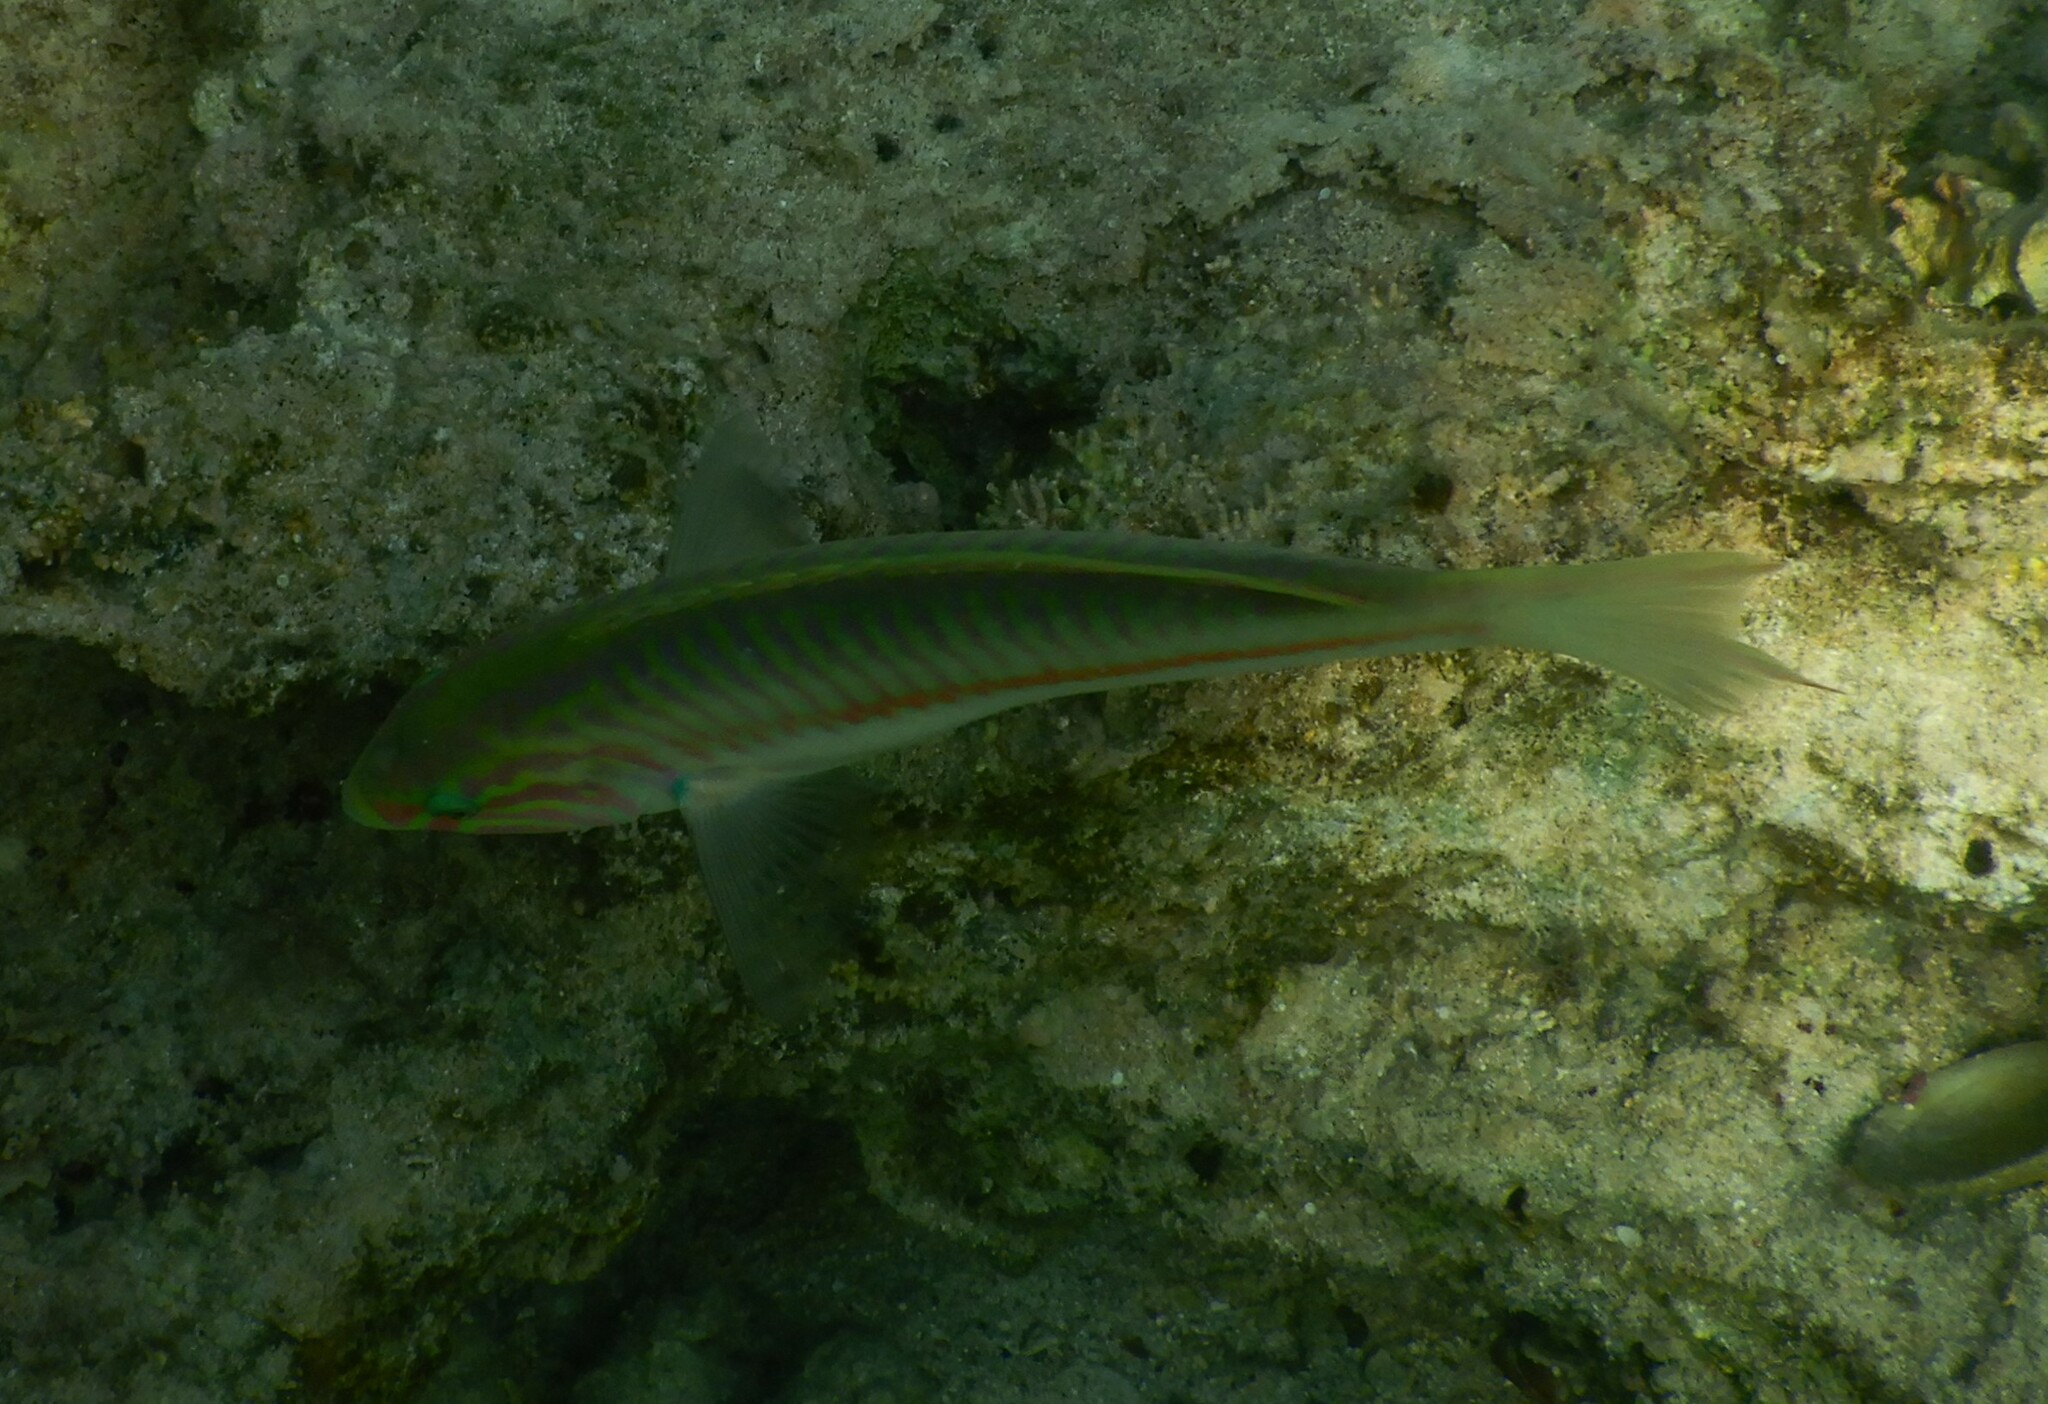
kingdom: Animalia
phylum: Chordata
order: Perciformes
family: Labridae
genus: Thalassoma
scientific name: Thalassoma rueppellii
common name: Klunzinger's wrasse
